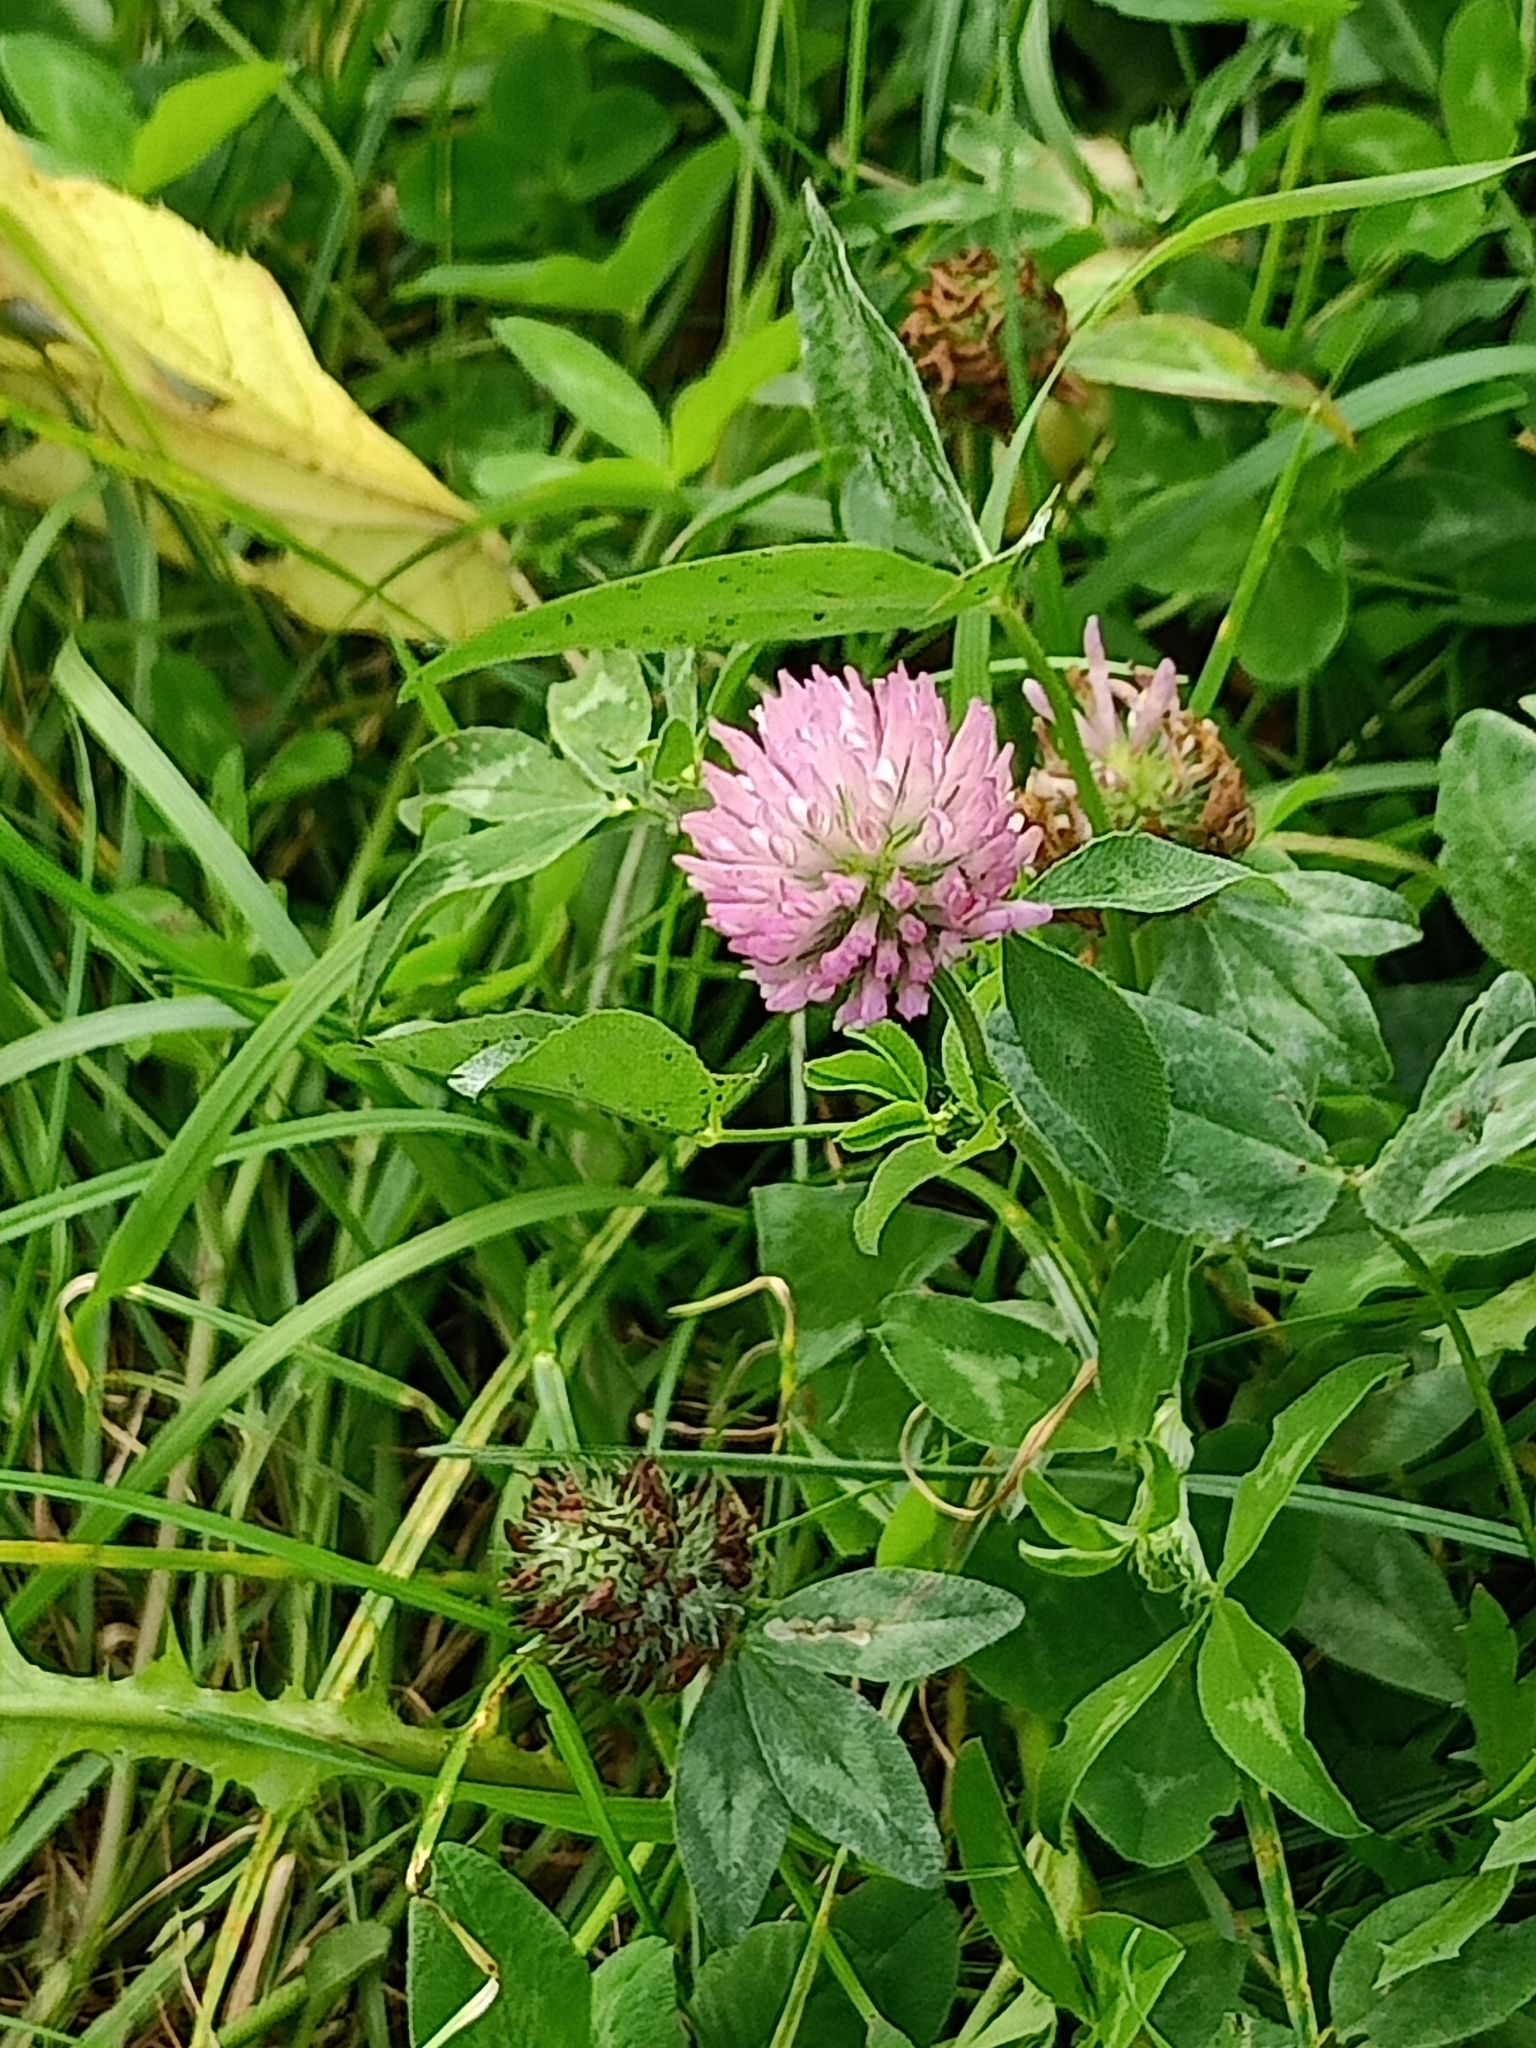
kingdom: Plantae
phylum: Tracheophyta
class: Magnoliopsida
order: Fabales
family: Fabaceae
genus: Trifolium
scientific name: Trifolium pratense
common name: Red clover
